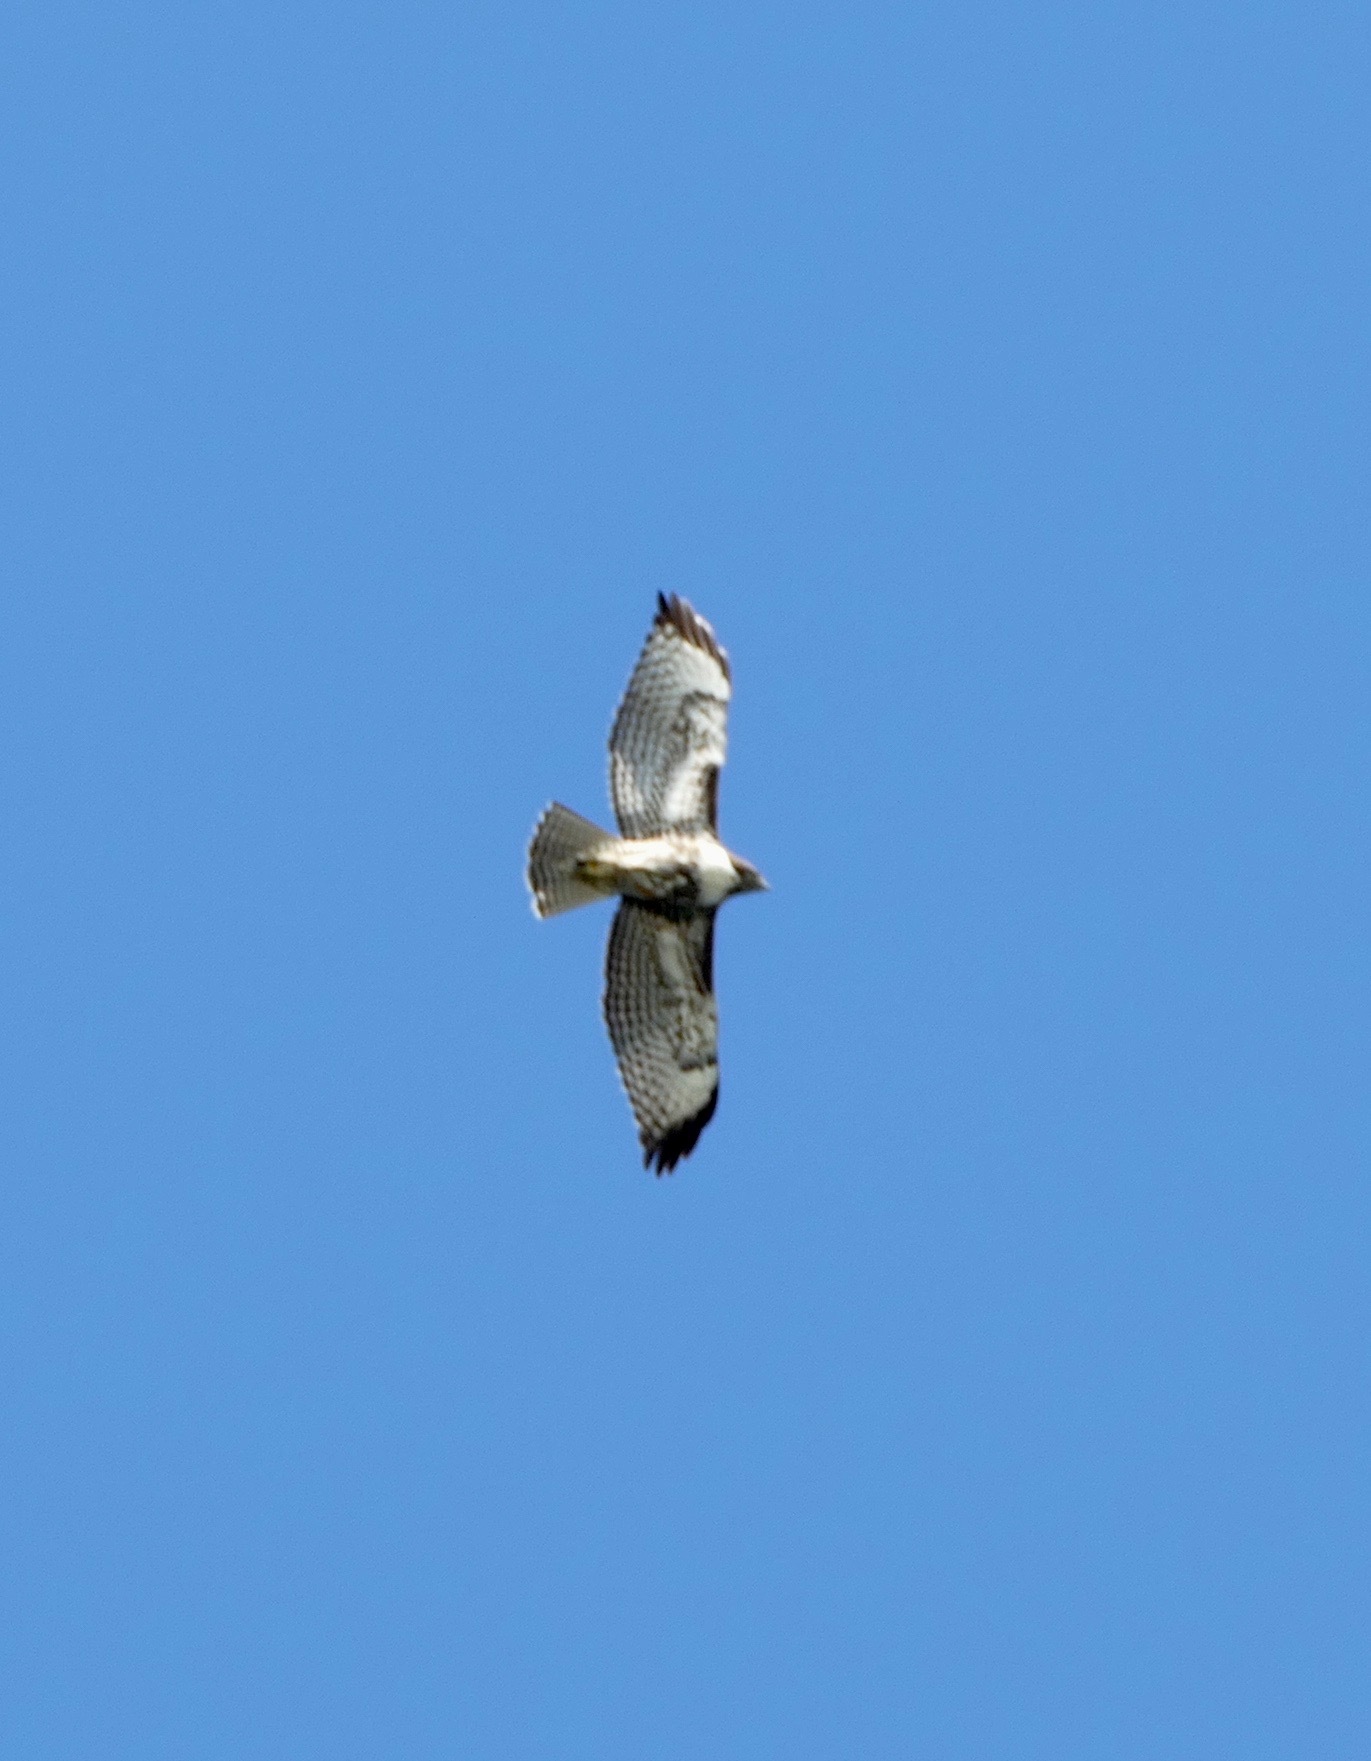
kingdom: Animalia
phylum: Chordata
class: Aves
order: Accipitriformes
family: Accipitridae
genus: Buteo
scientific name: Buteo jamaicensis
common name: Red-tailed hawk
